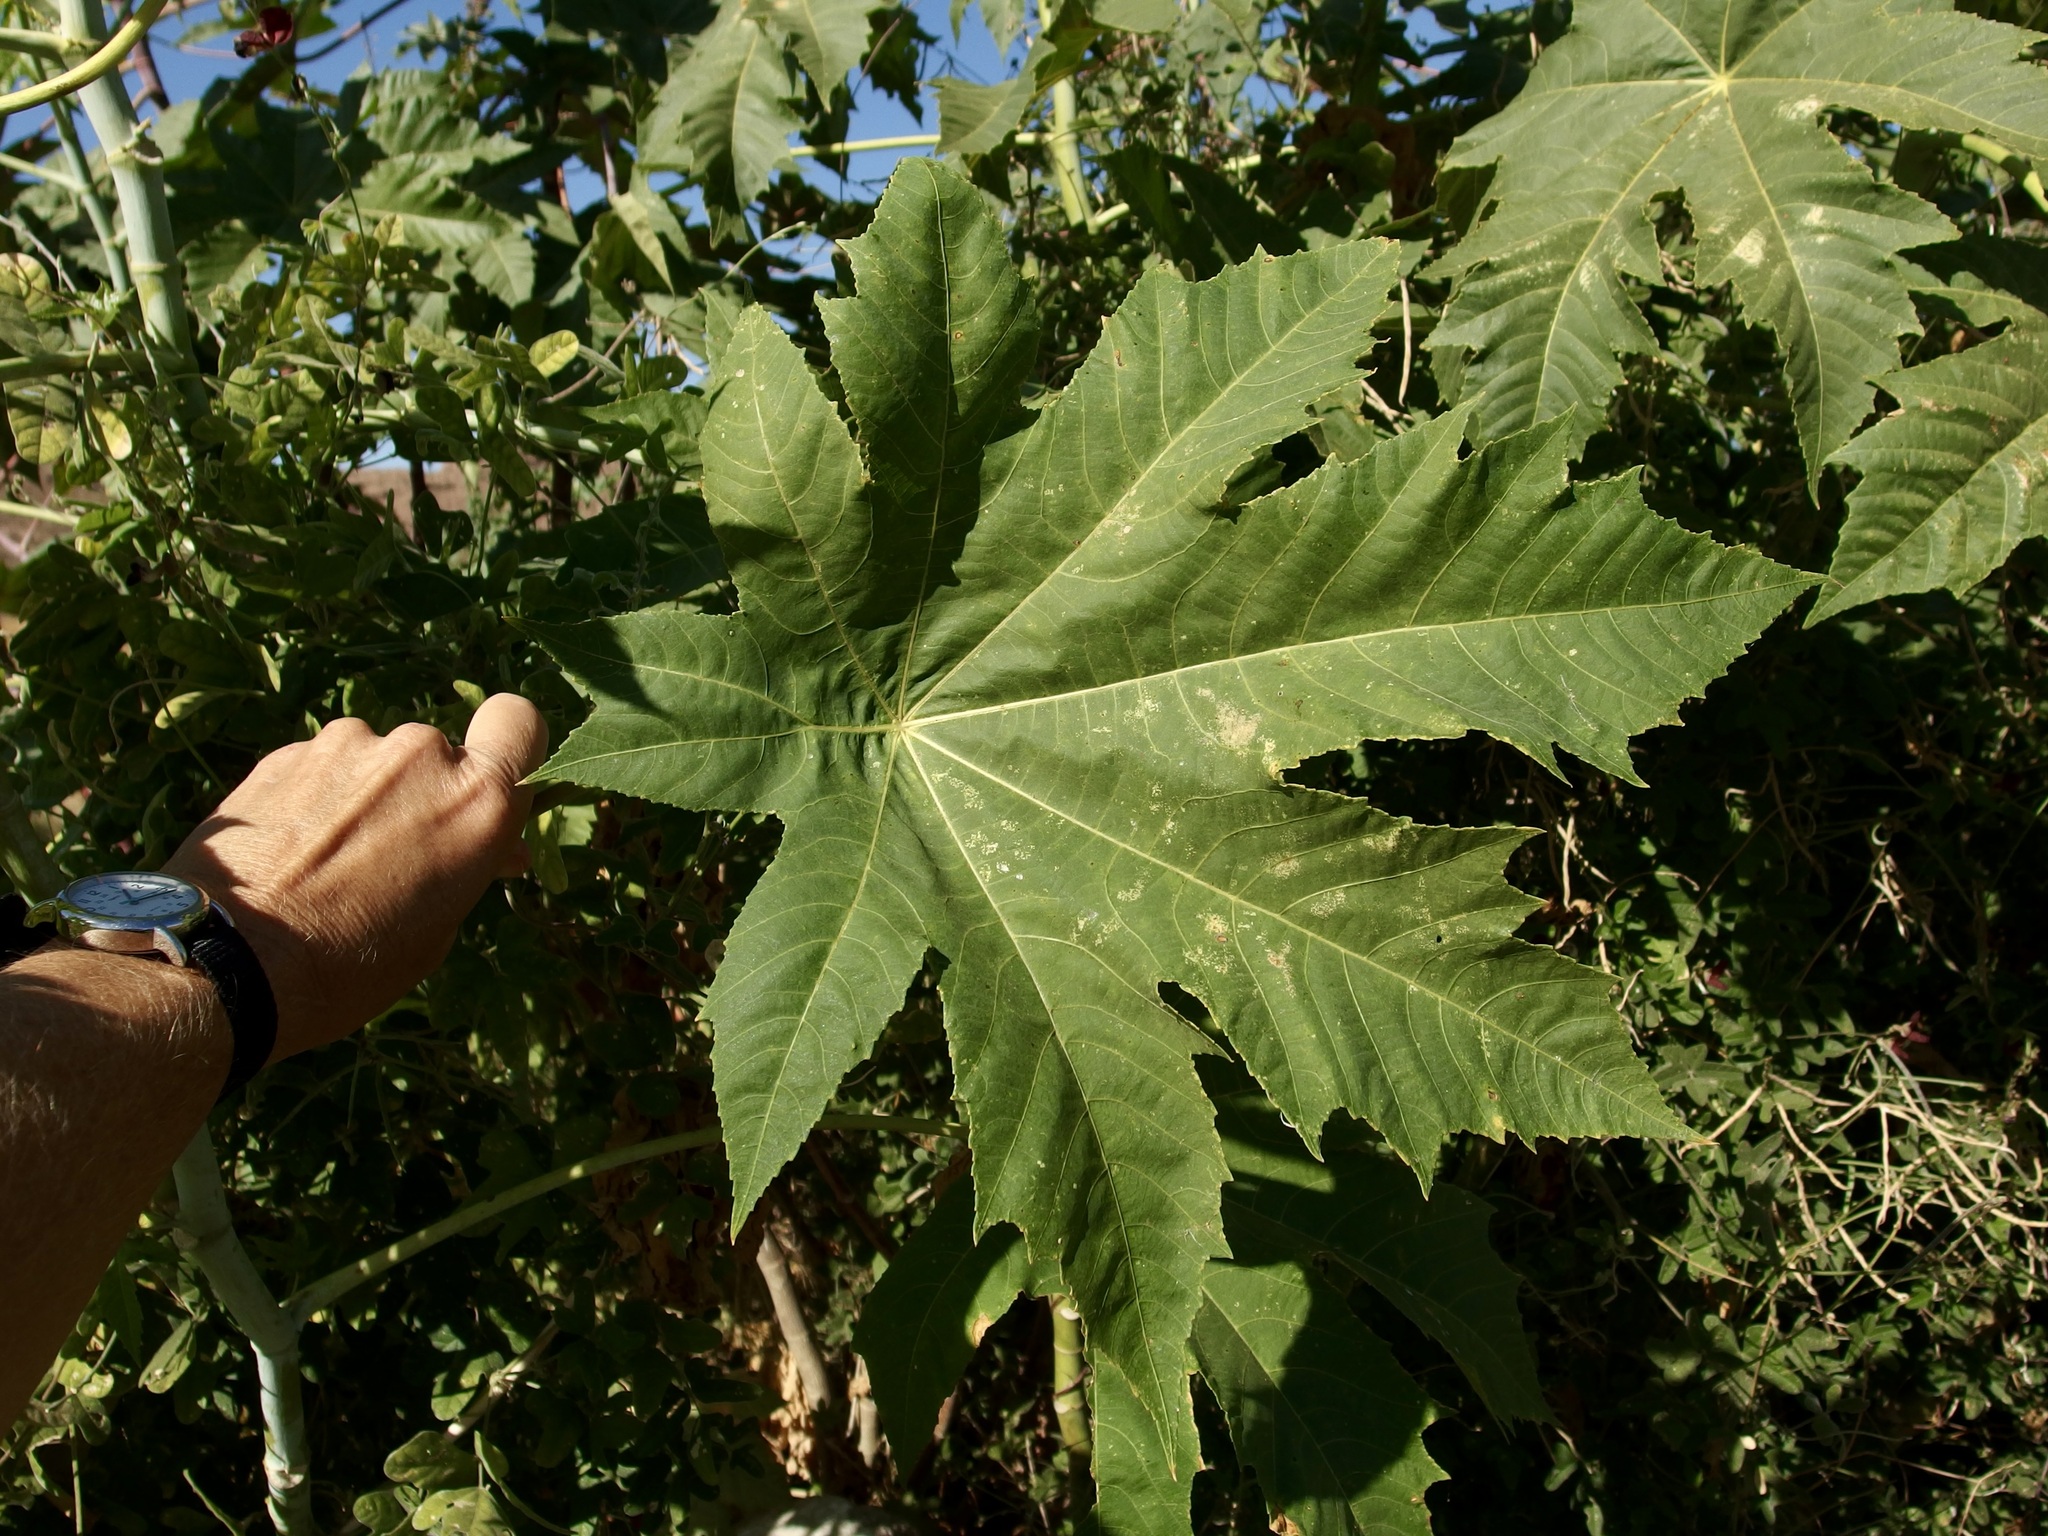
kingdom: Plantae
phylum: Tracheophyta
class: Magnoliopsida
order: Malpighiales
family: Euphorbiaceae
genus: Ricinus
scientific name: Ricinus communis
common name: Castor-oil-plant
